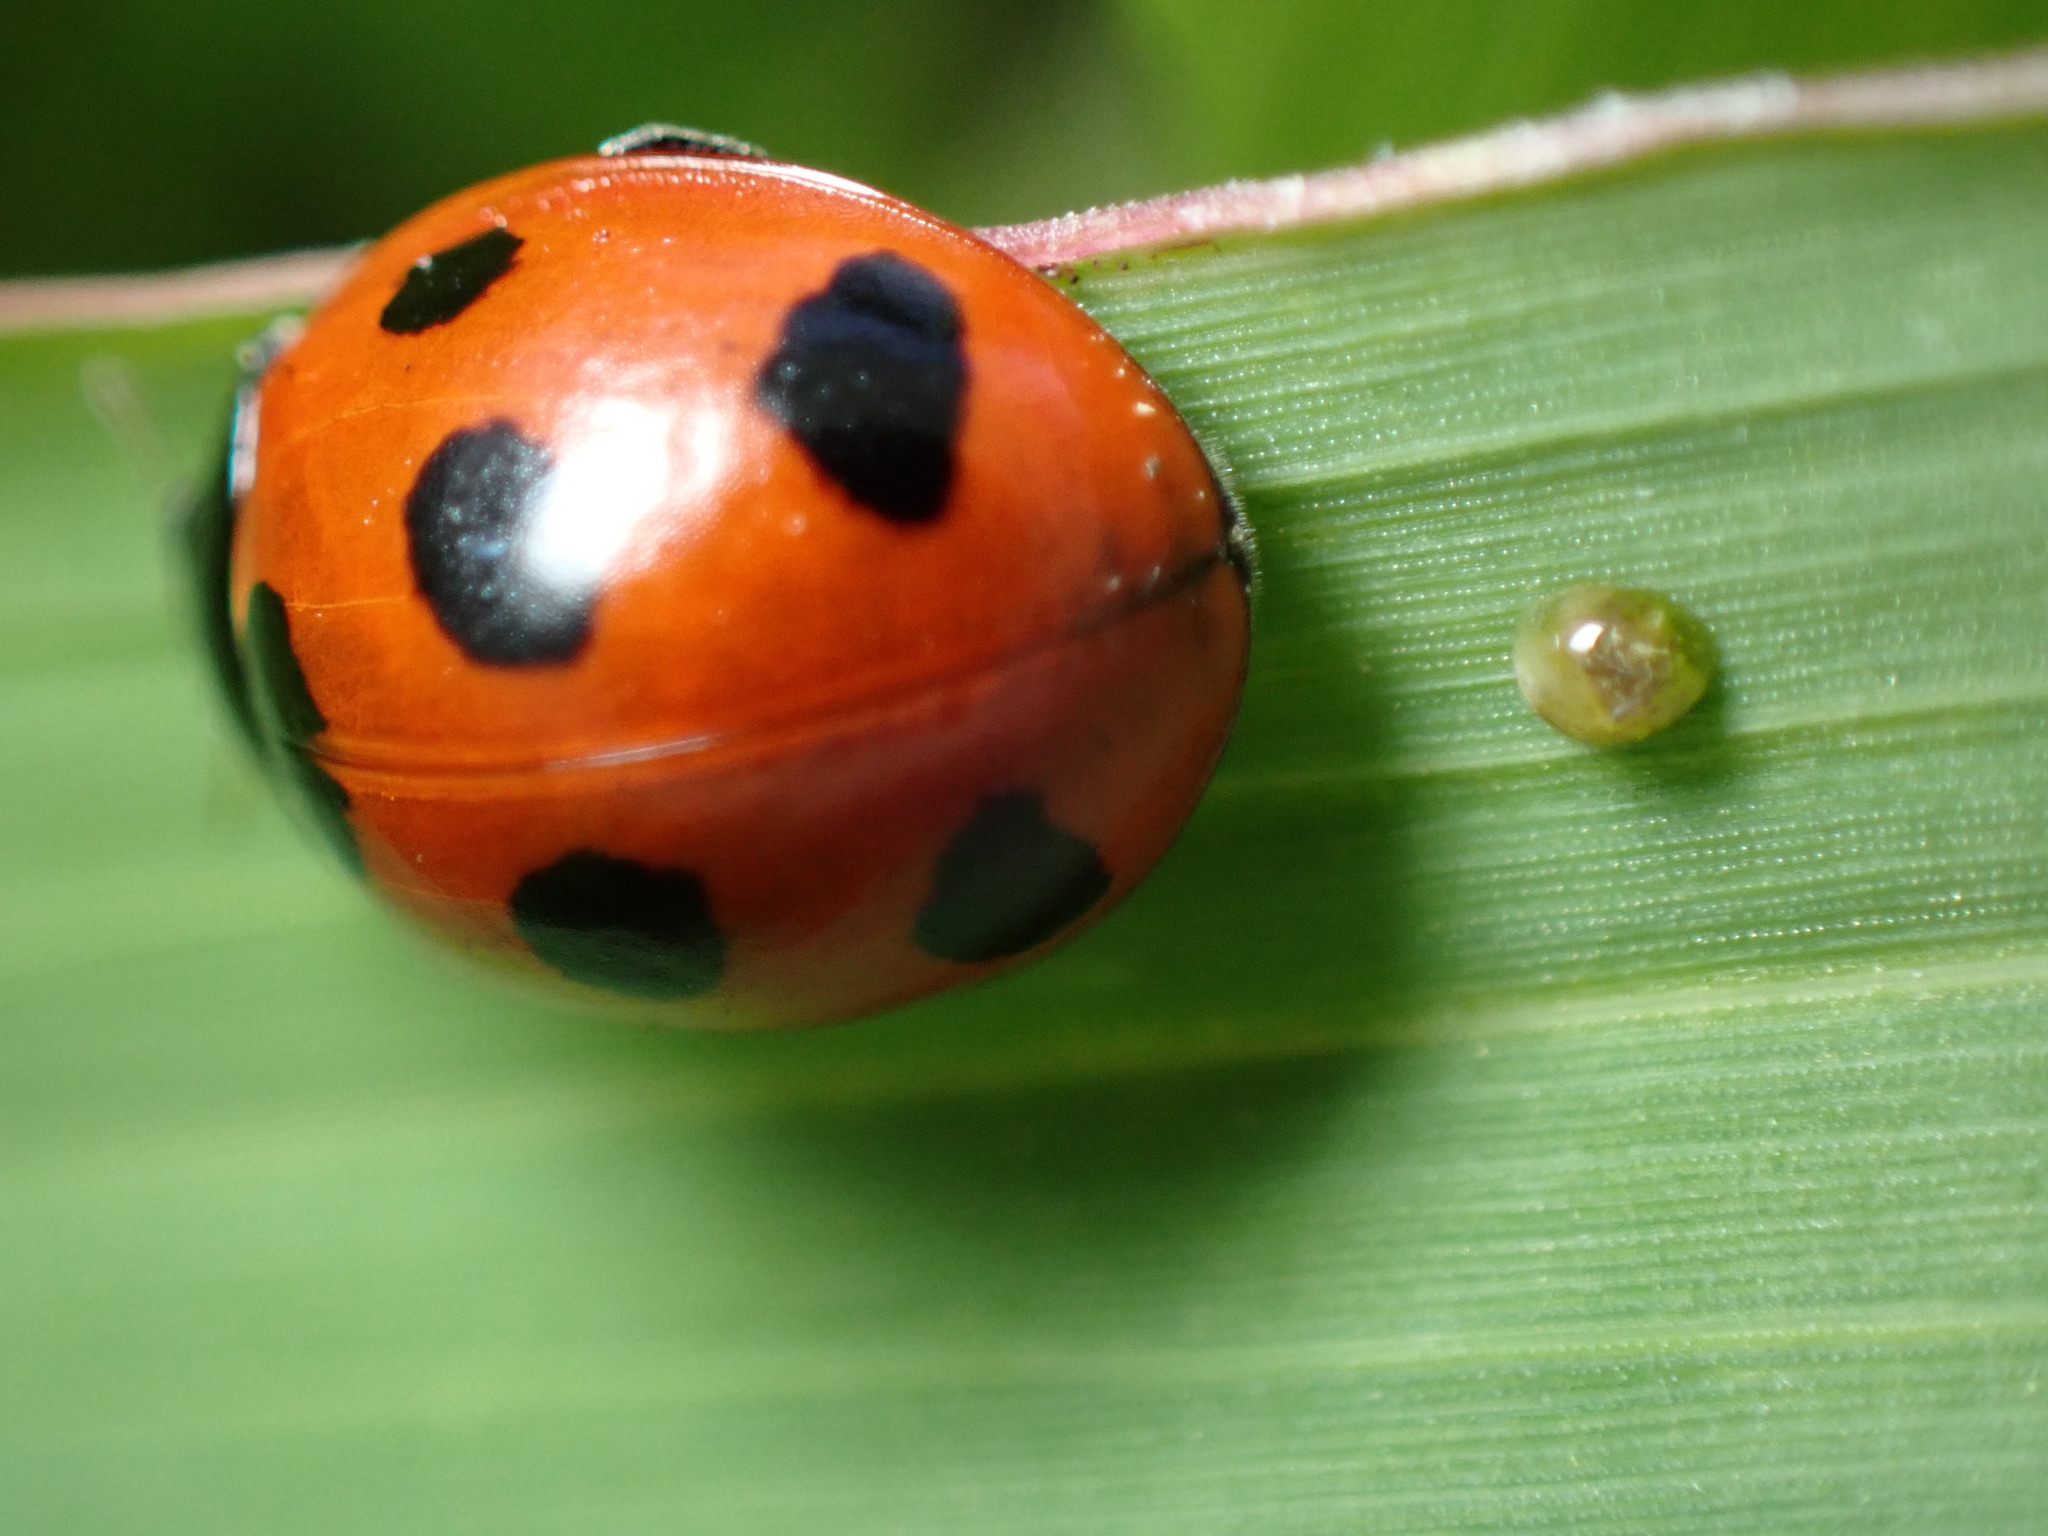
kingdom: Animalia
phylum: Arthropoda
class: Insecta
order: Coleoptera
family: Coccinellidae
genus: Coccinella
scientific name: Coccinella septempunctata
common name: Sevenspotted lady beetle
